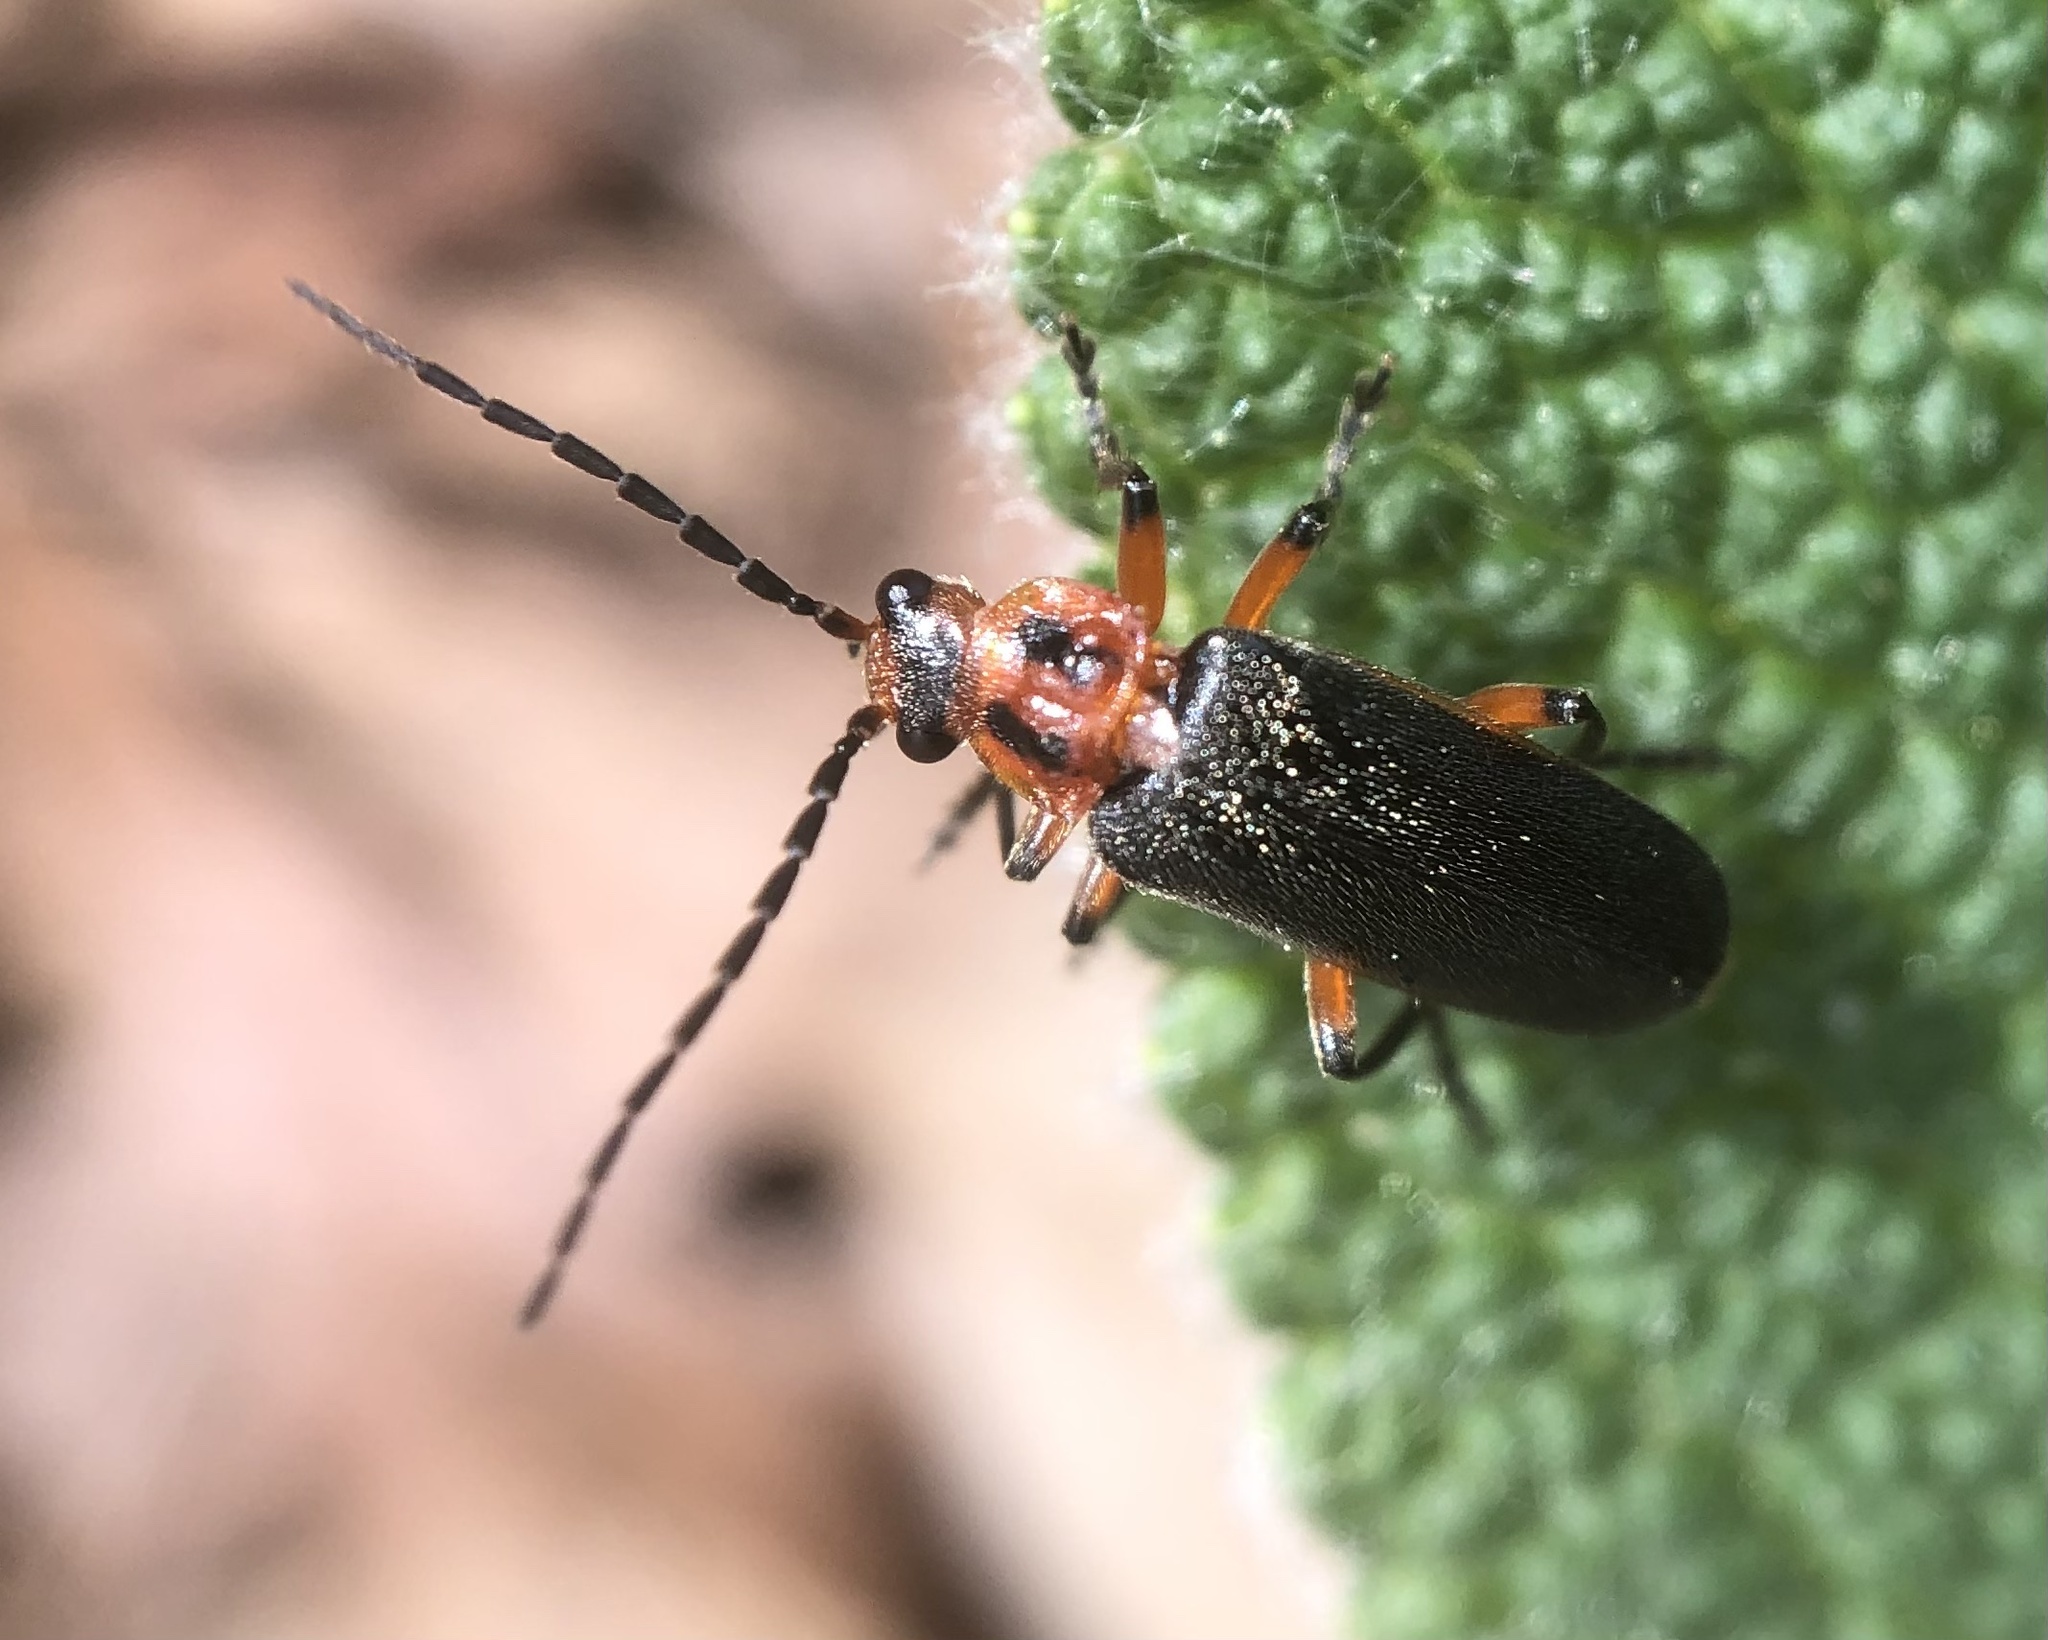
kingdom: Animalia
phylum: Arthropoda
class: Insecta
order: Coleoptera
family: Cantharidae
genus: Atalantycha
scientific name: Atalantycha bilineata
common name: Two-lined leatherwing
